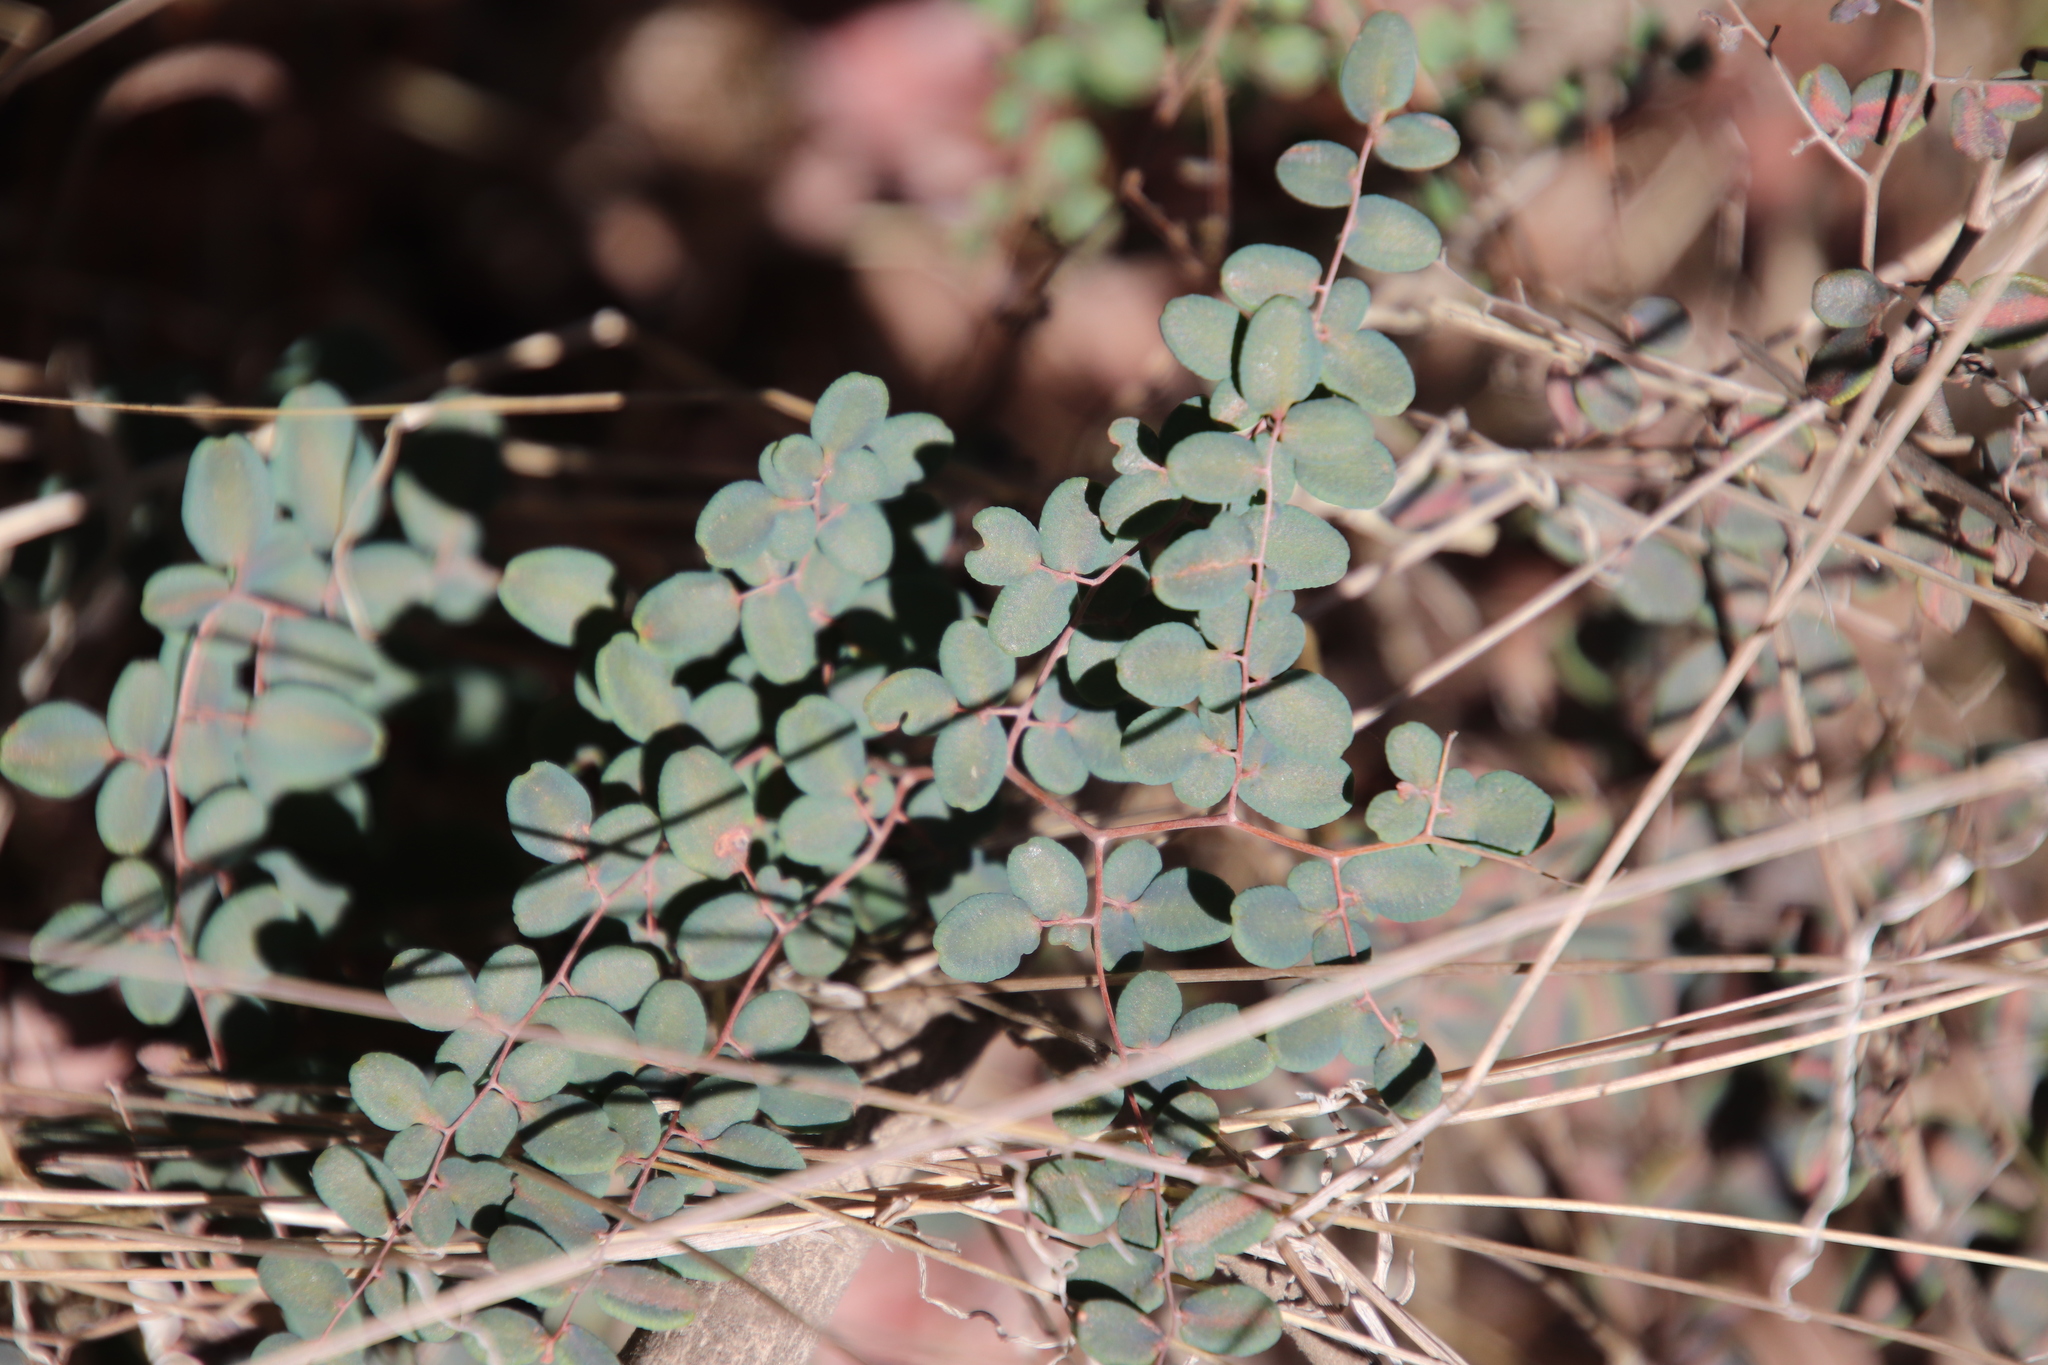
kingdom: Plantae
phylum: Tracheophyta
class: Polypodiopsida
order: Polypodiales
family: Pteridaceae
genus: Pellaea
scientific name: Pellaea andromedifolia
